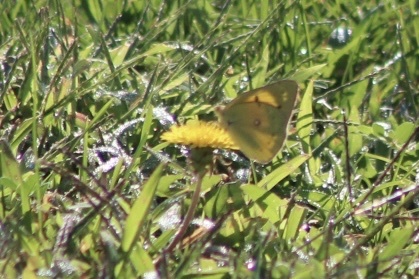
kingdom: Animalia
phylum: Arthropoda
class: Insecta
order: Lepidoptera
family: Pieridae
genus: Colias
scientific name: Colias eurytheme
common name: Alfalfa butterfly
